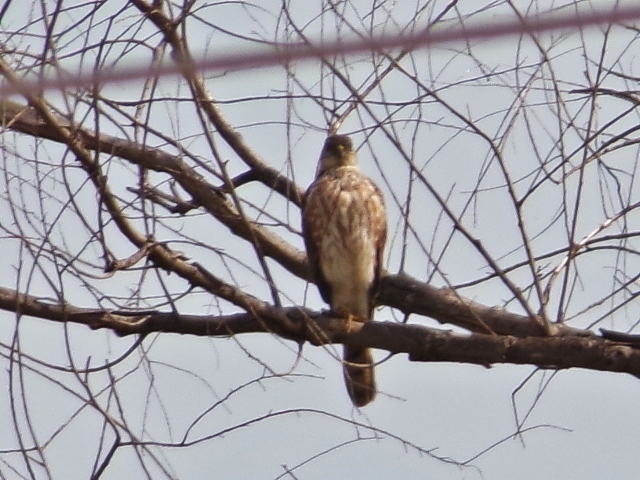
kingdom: Animalia
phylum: Chordata
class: Aves
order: Accipitriformes
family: Accipitridae
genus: Accipiter
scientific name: Accipiter striatus
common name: Sharp-shinned hawk
